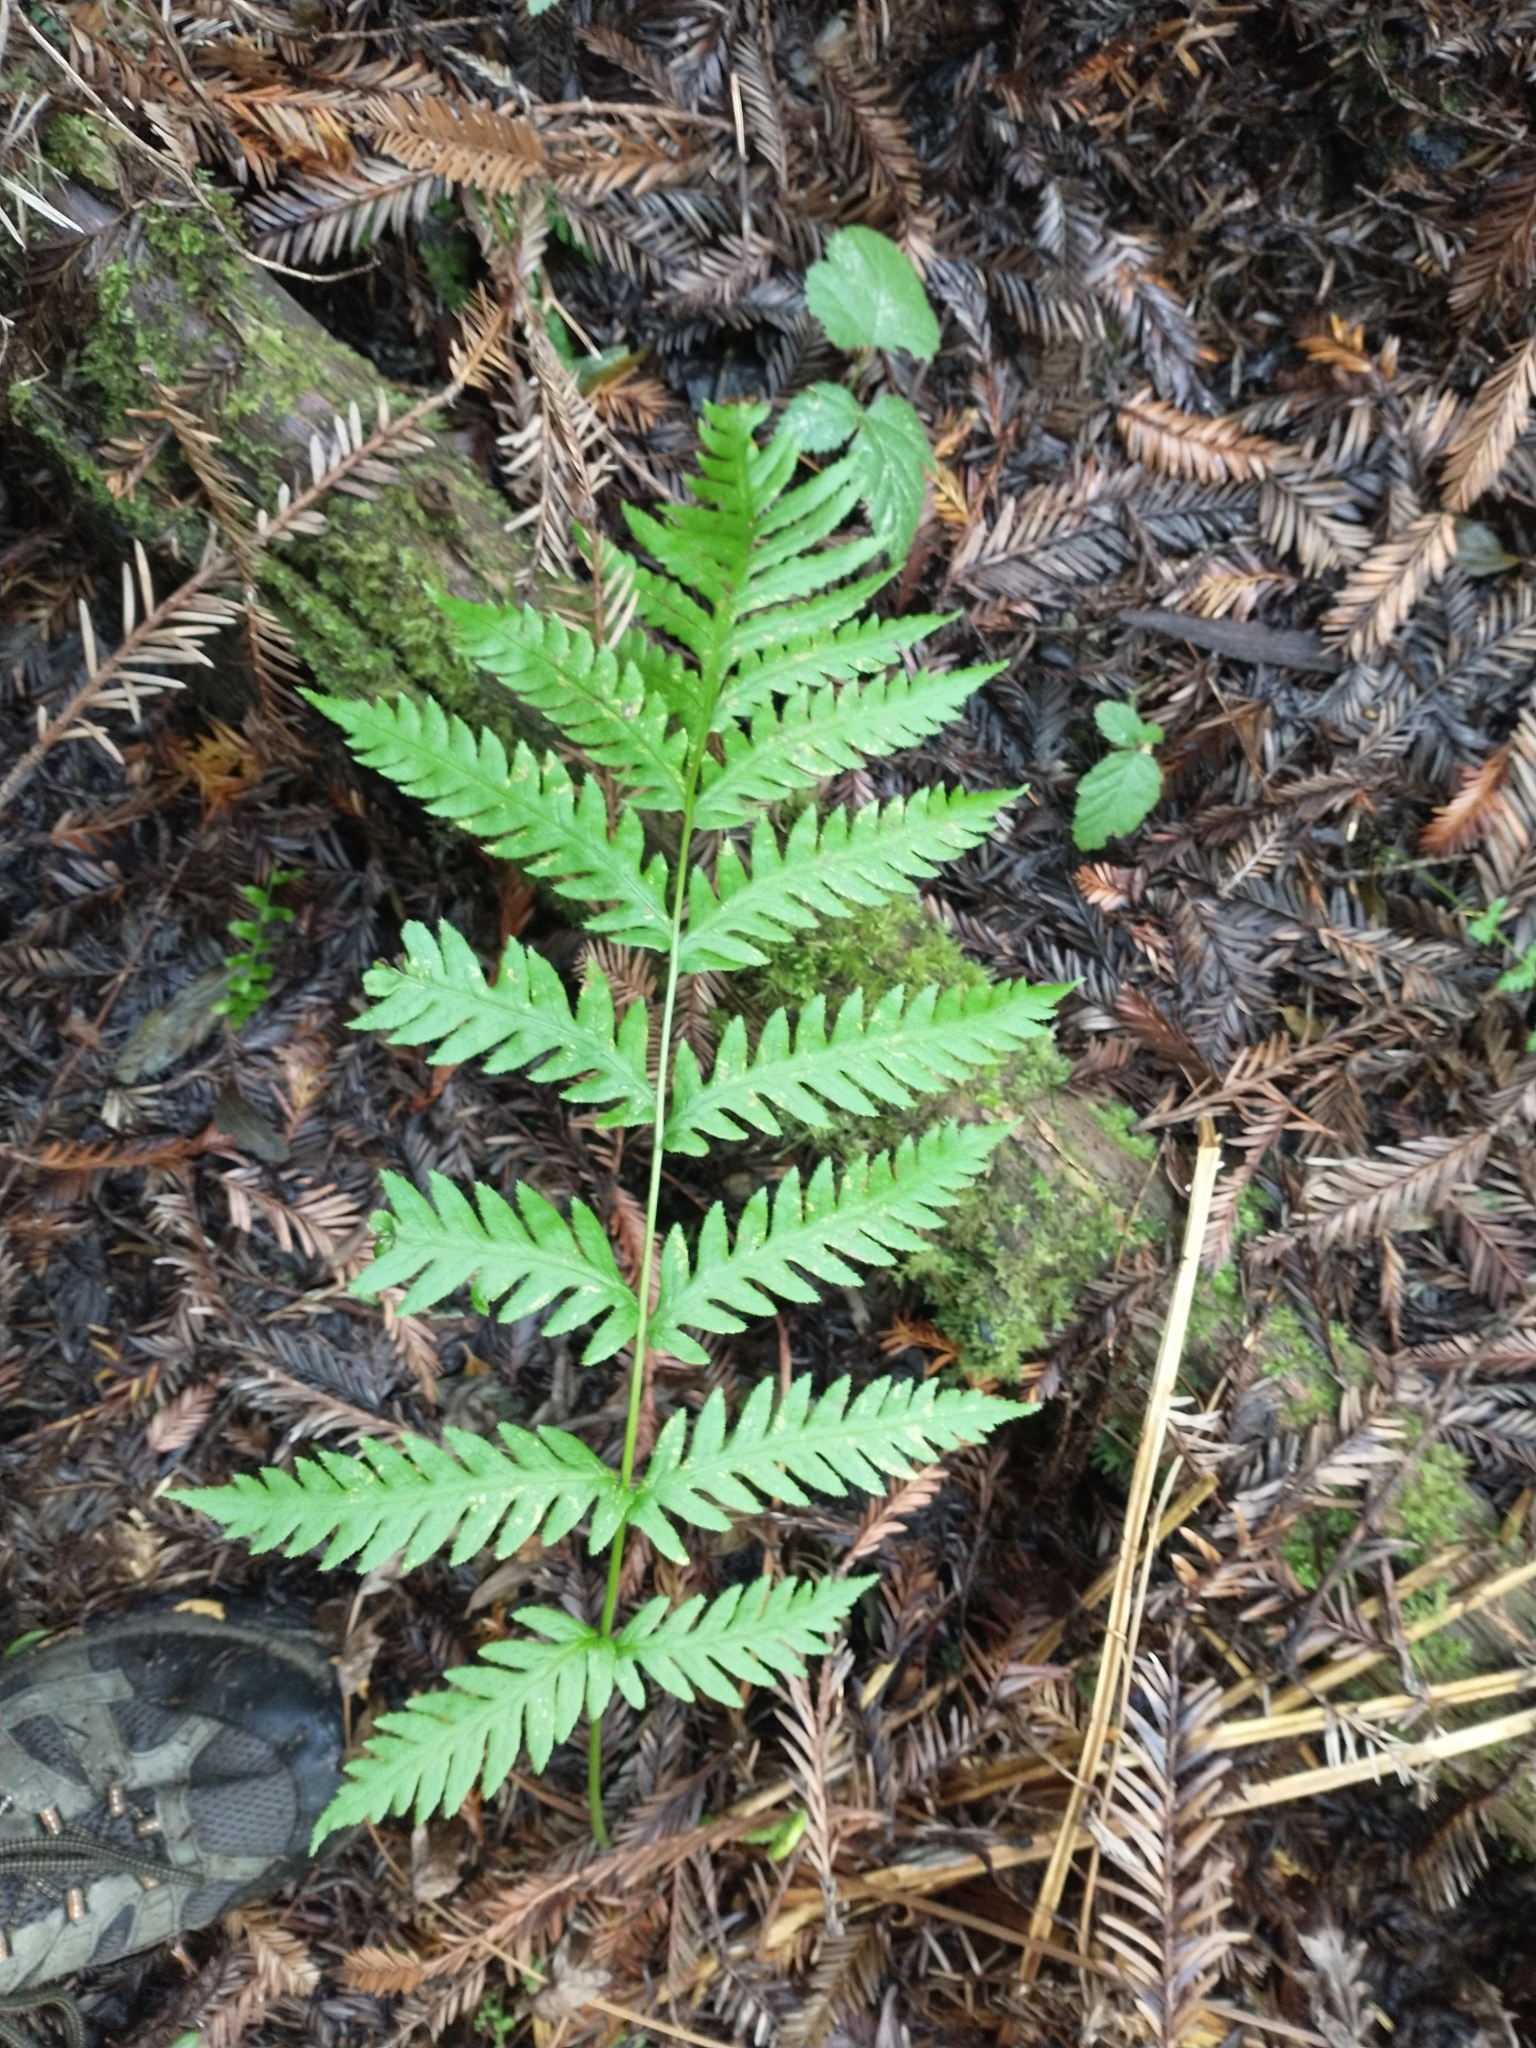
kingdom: Plantae
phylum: Tracheophyta
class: Polypodiopsida
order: Polypodiales
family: Blechnaceae
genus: Woodwardia
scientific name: Woodwardia fimbriata
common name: Giant chain fern
